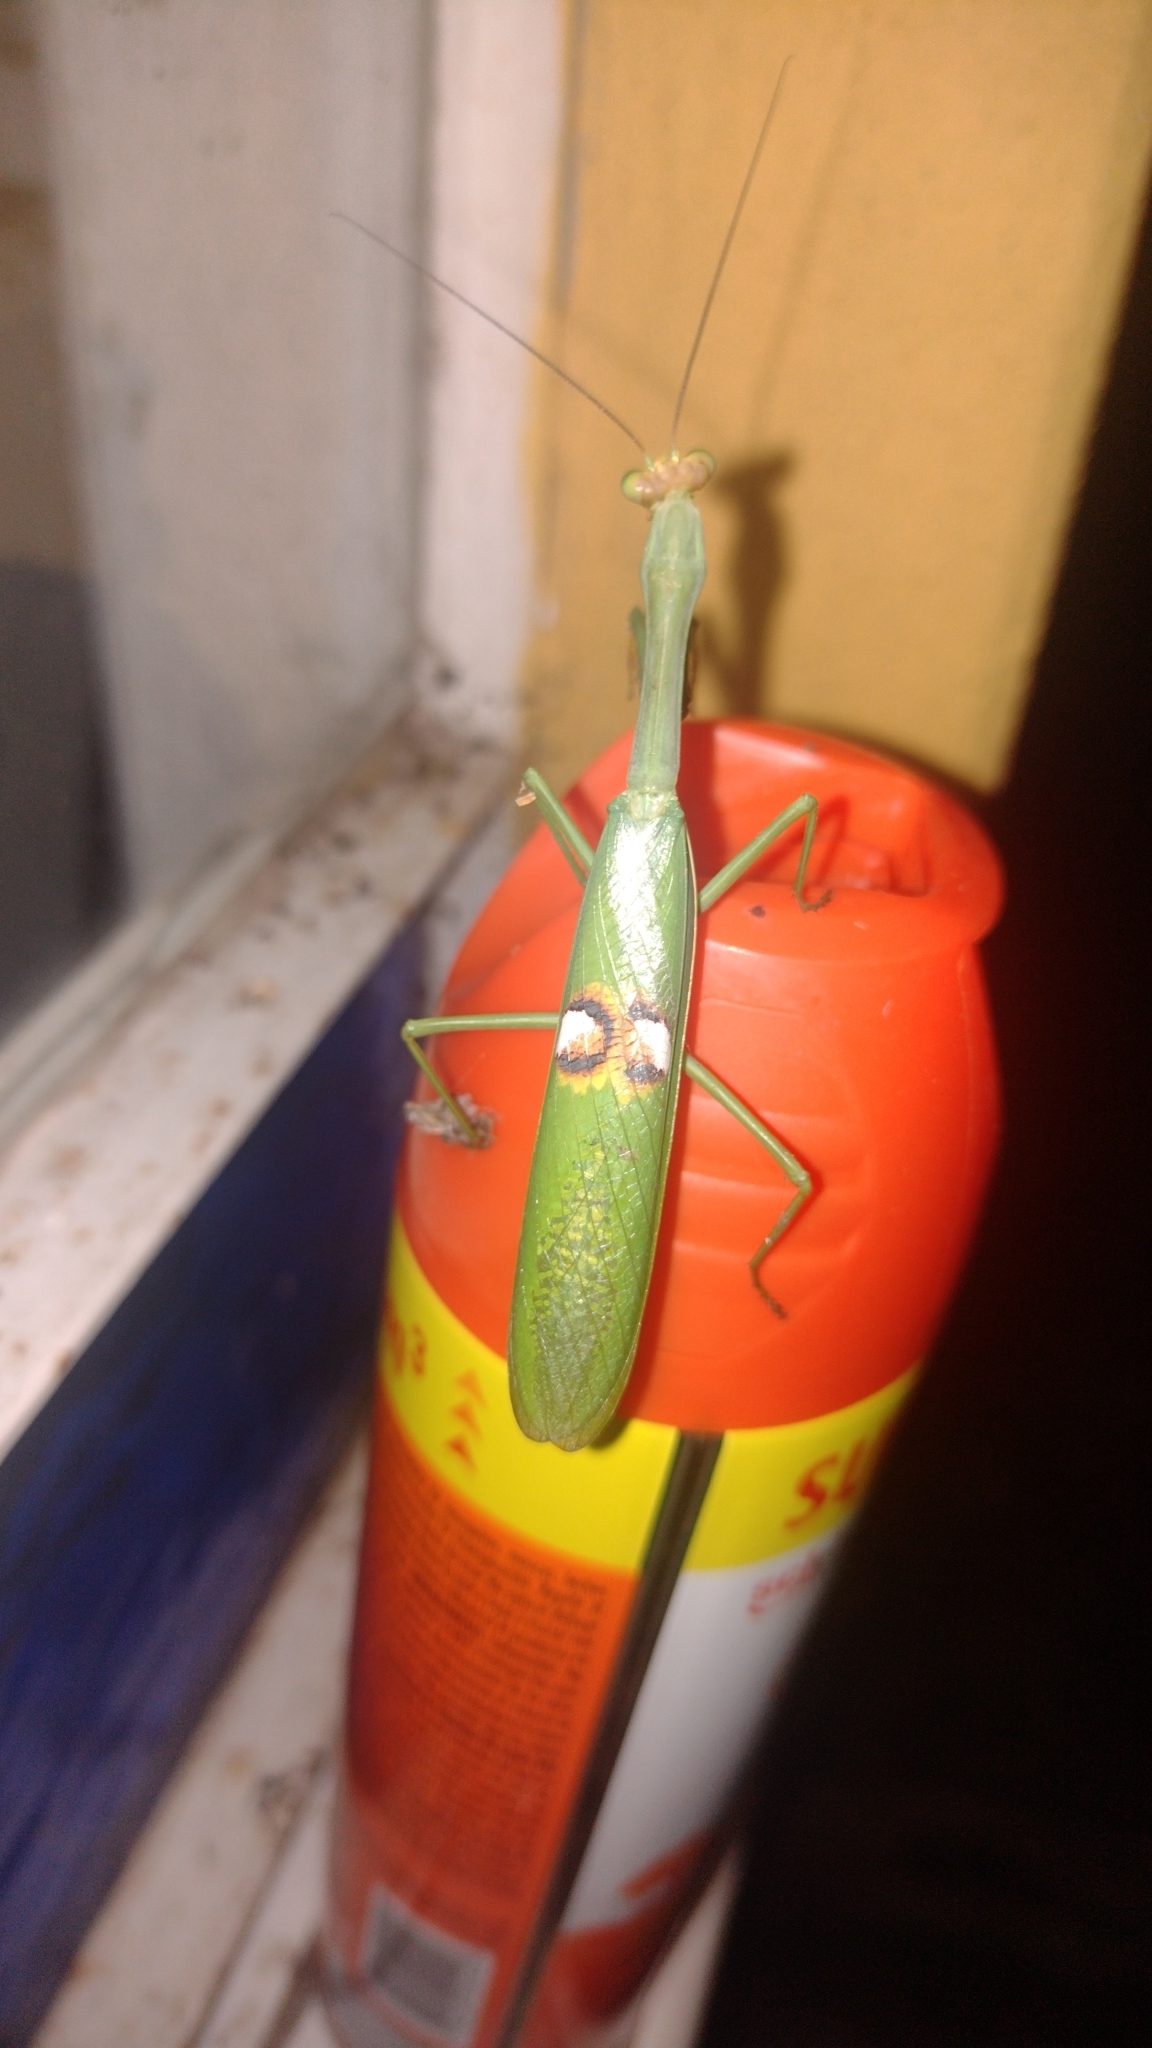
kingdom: Animalia
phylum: Arthropoda
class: Insecta
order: Mantodea
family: Mantidae
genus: Stagmatoptera
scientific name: Stagmatoptera hyaloptera
